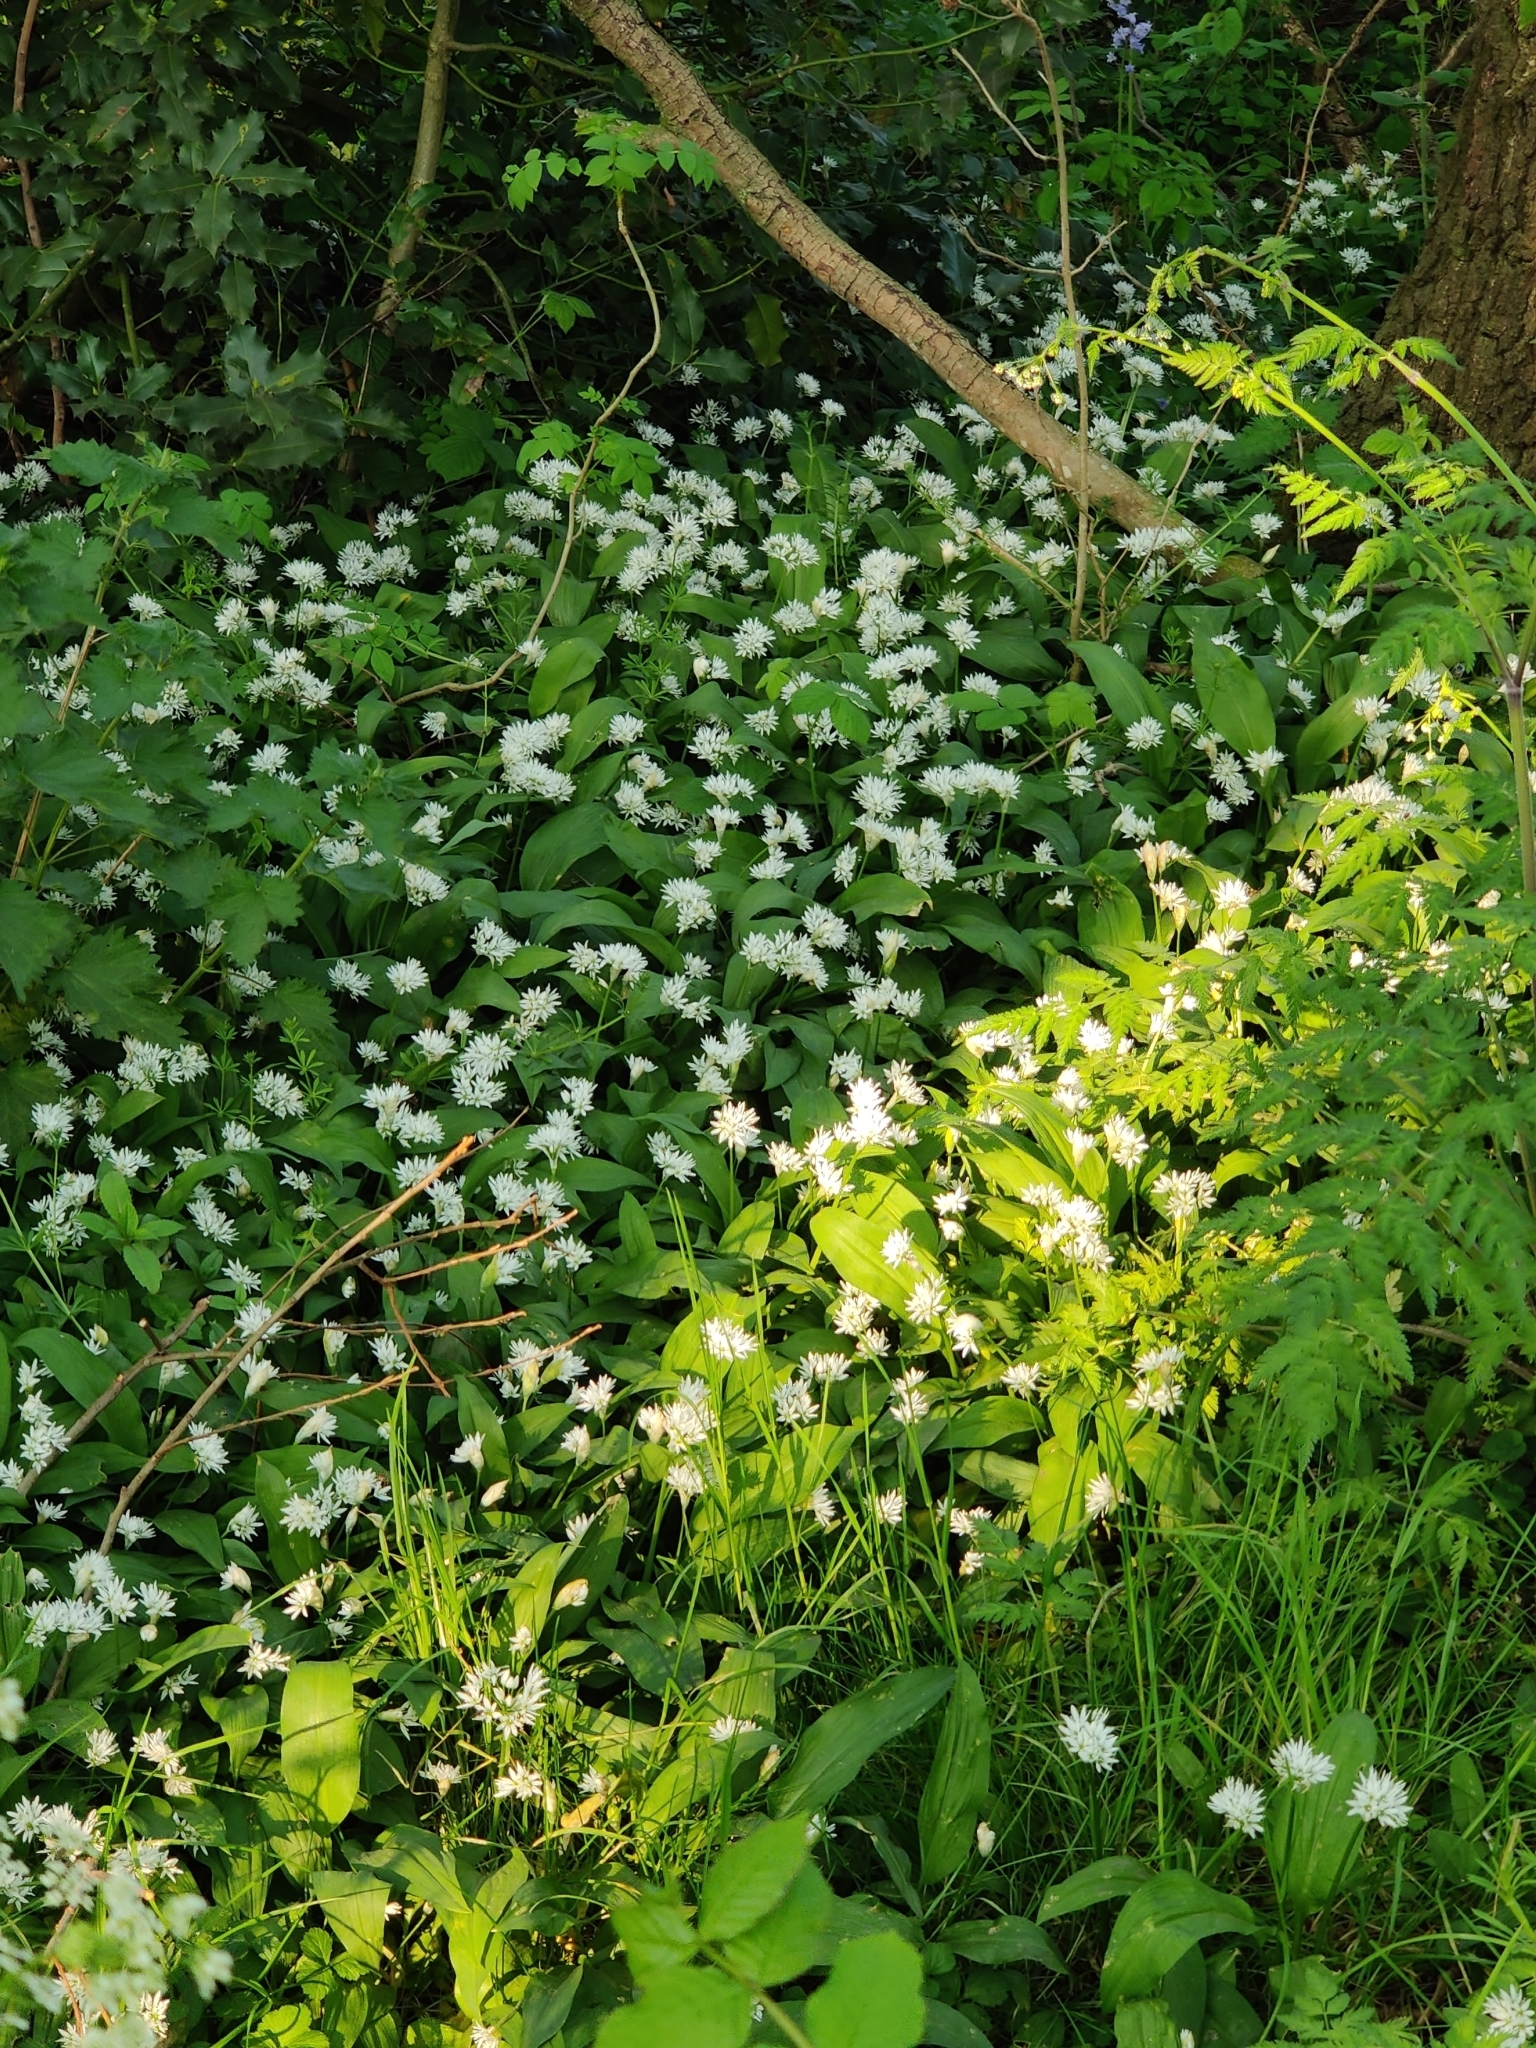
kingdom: Plantae
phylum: Tracheophyta
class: Liliopsida
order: Asparagales
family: Amaryllidaceae
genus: Allium
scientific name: Allium ursinum
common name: Ramsons
